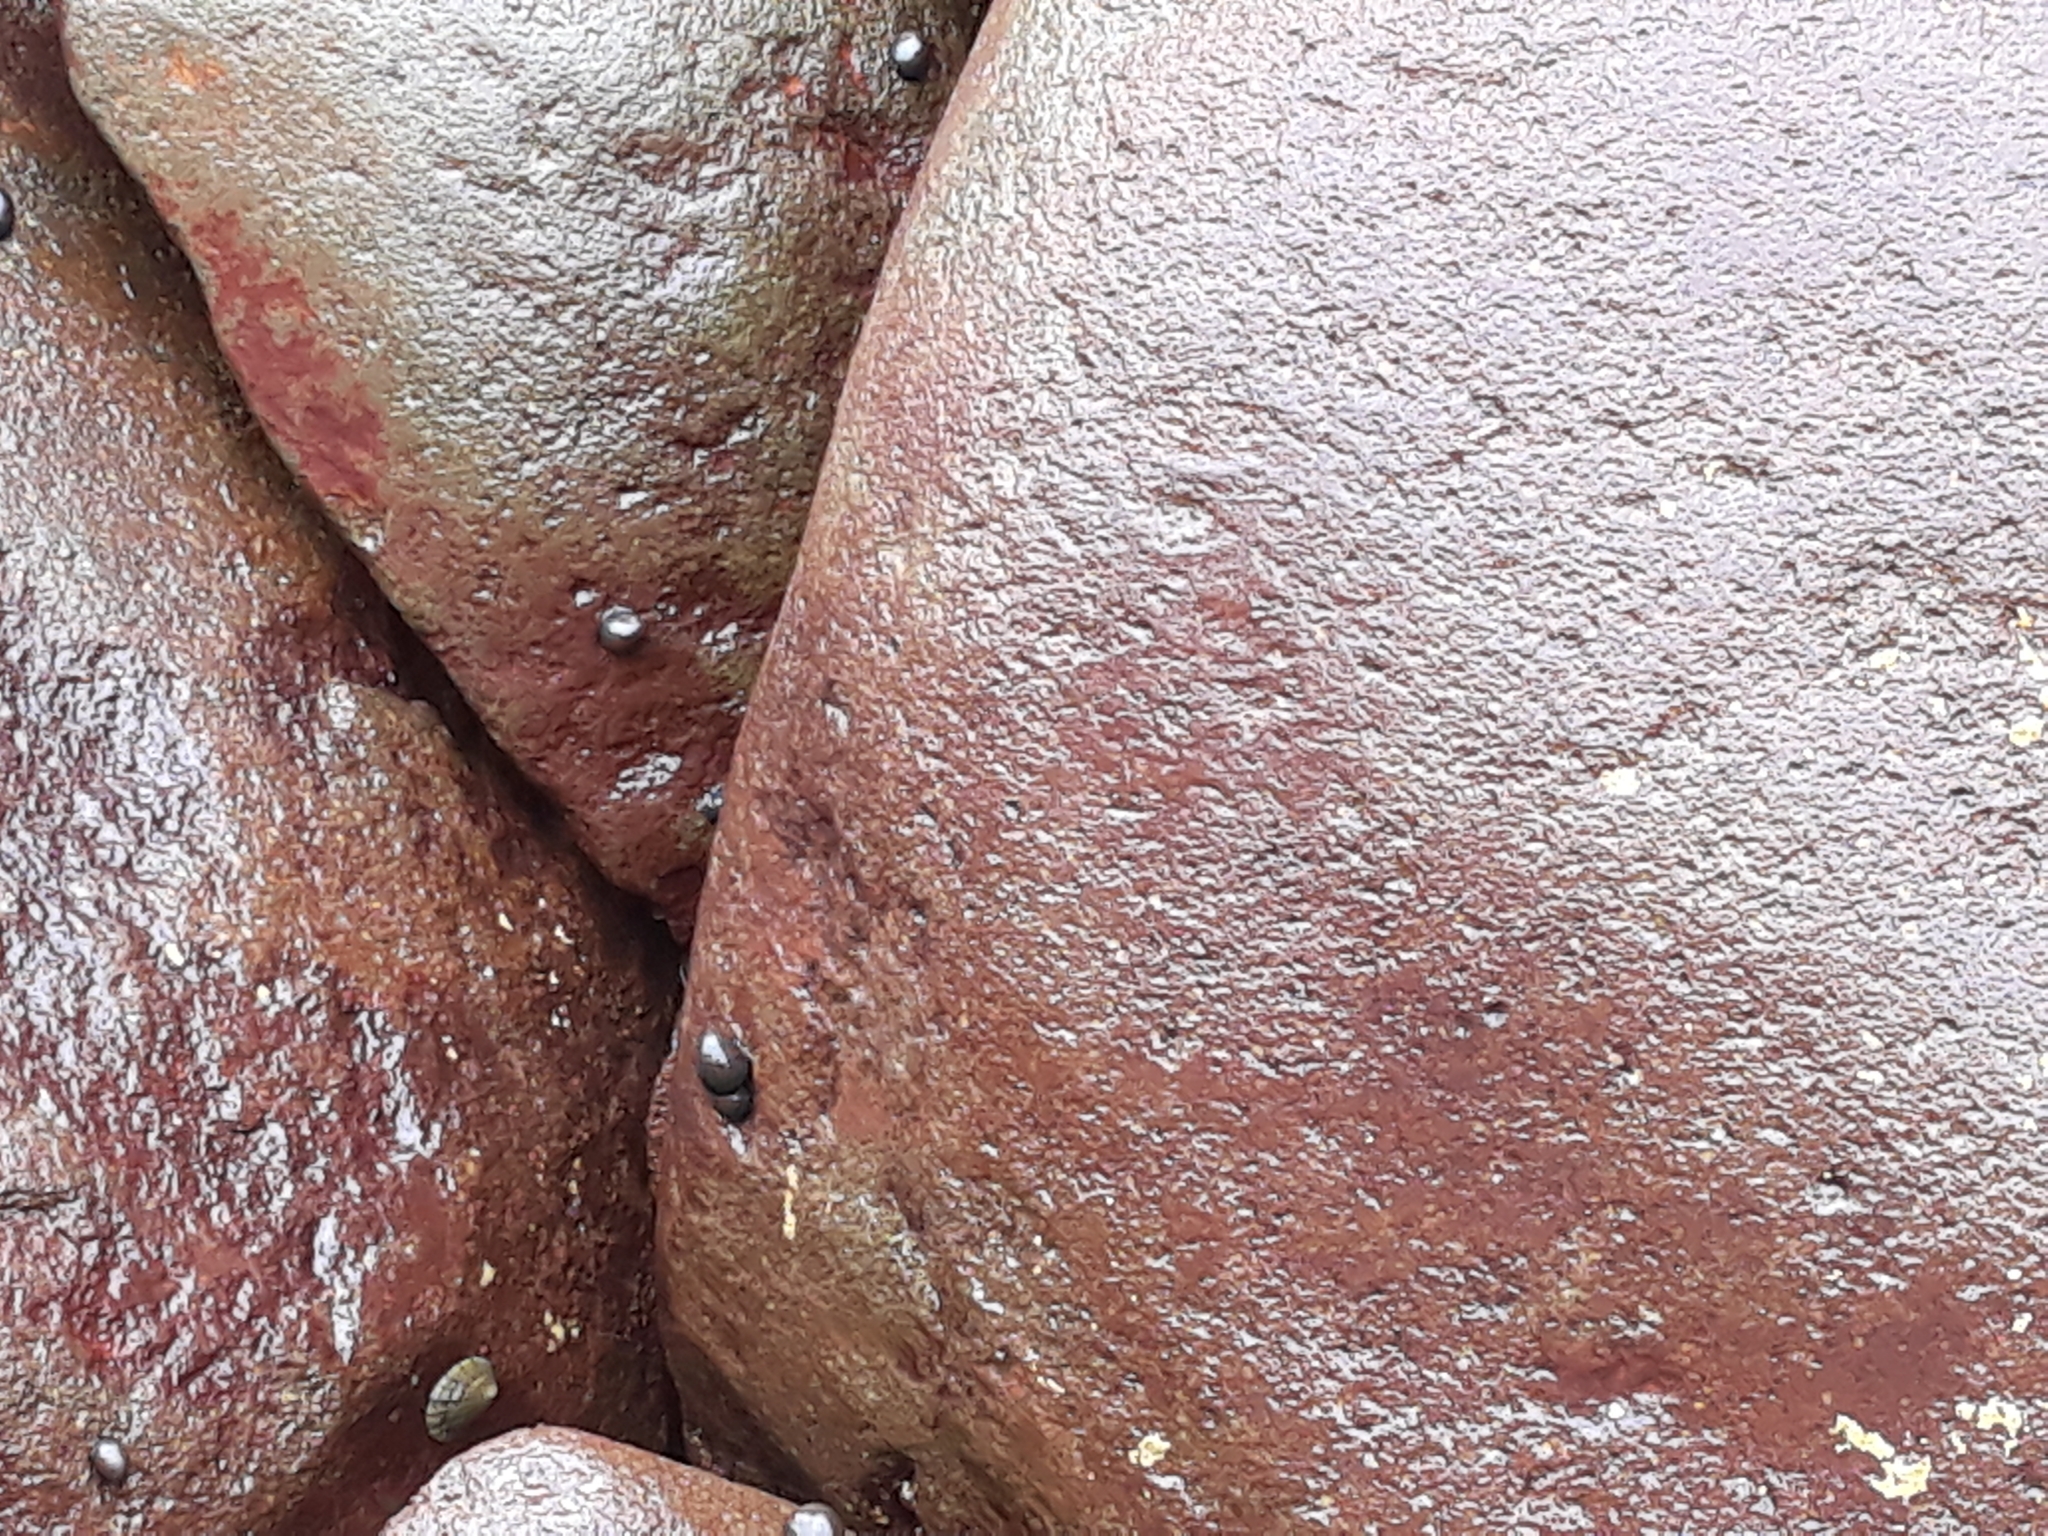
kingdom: Animalia
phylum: Mollusca
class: Gastropoda
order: Cycloneritida
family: Neritidae
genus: Nerita
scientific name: Nerita melanotragus
